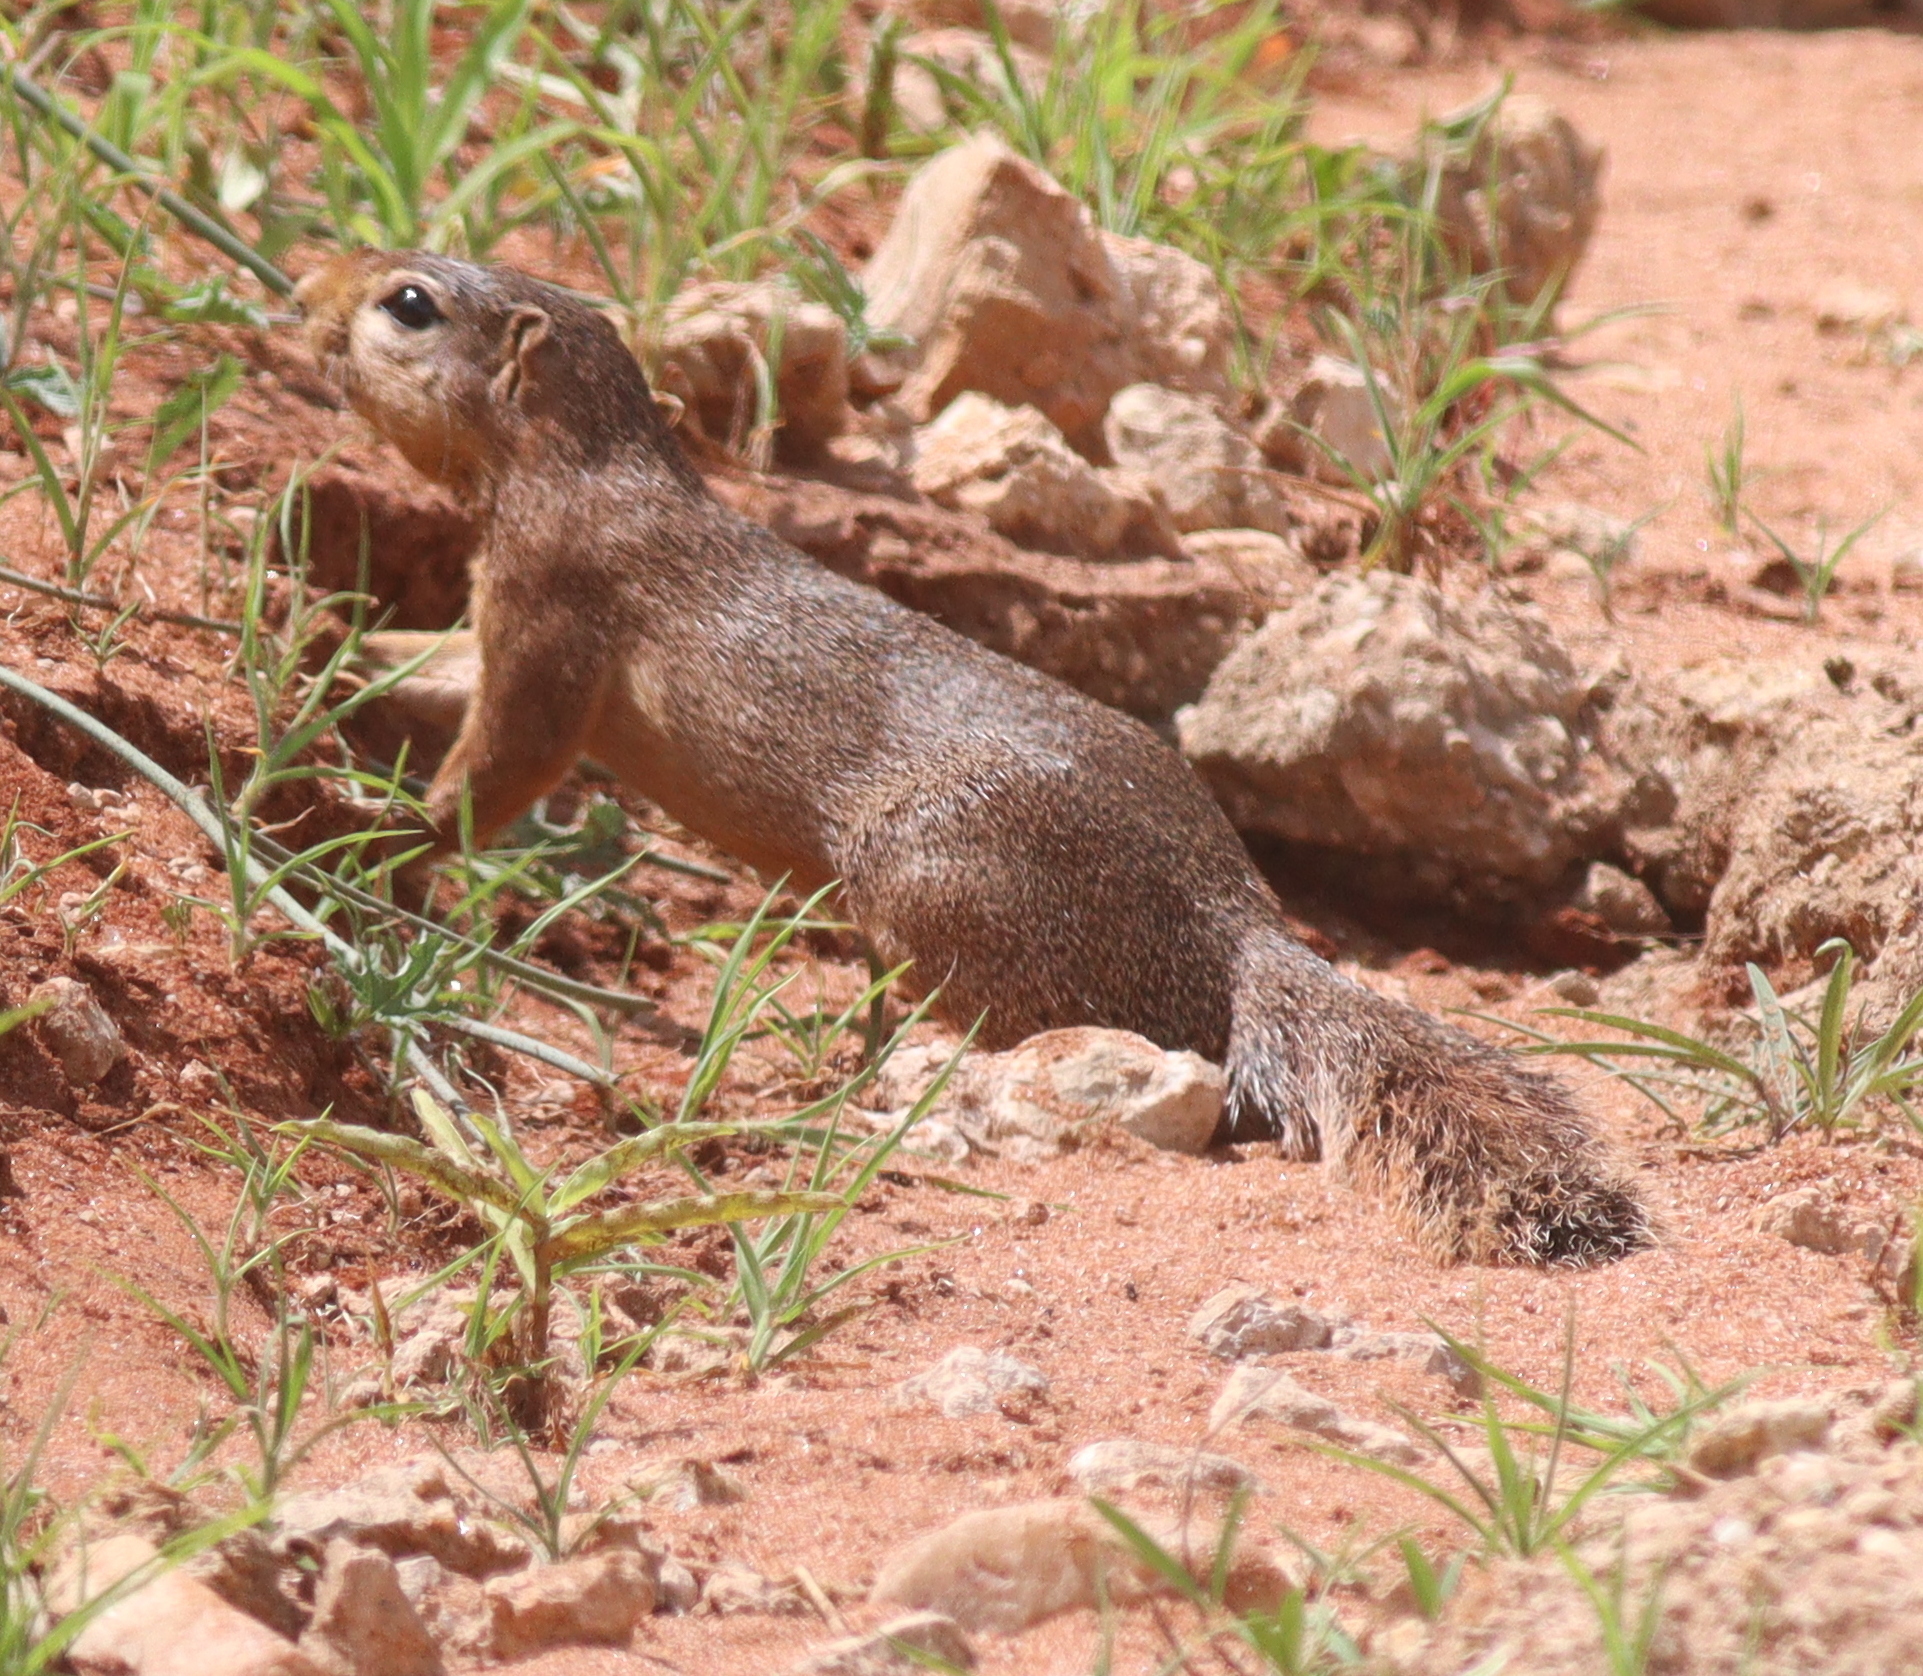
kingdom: Animalia
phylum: Chordata
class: Mammalia
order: Rodentia
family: Sciuridae
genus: Xerus
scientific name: Xerus rutilus
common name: Unstriped ground squirrel
